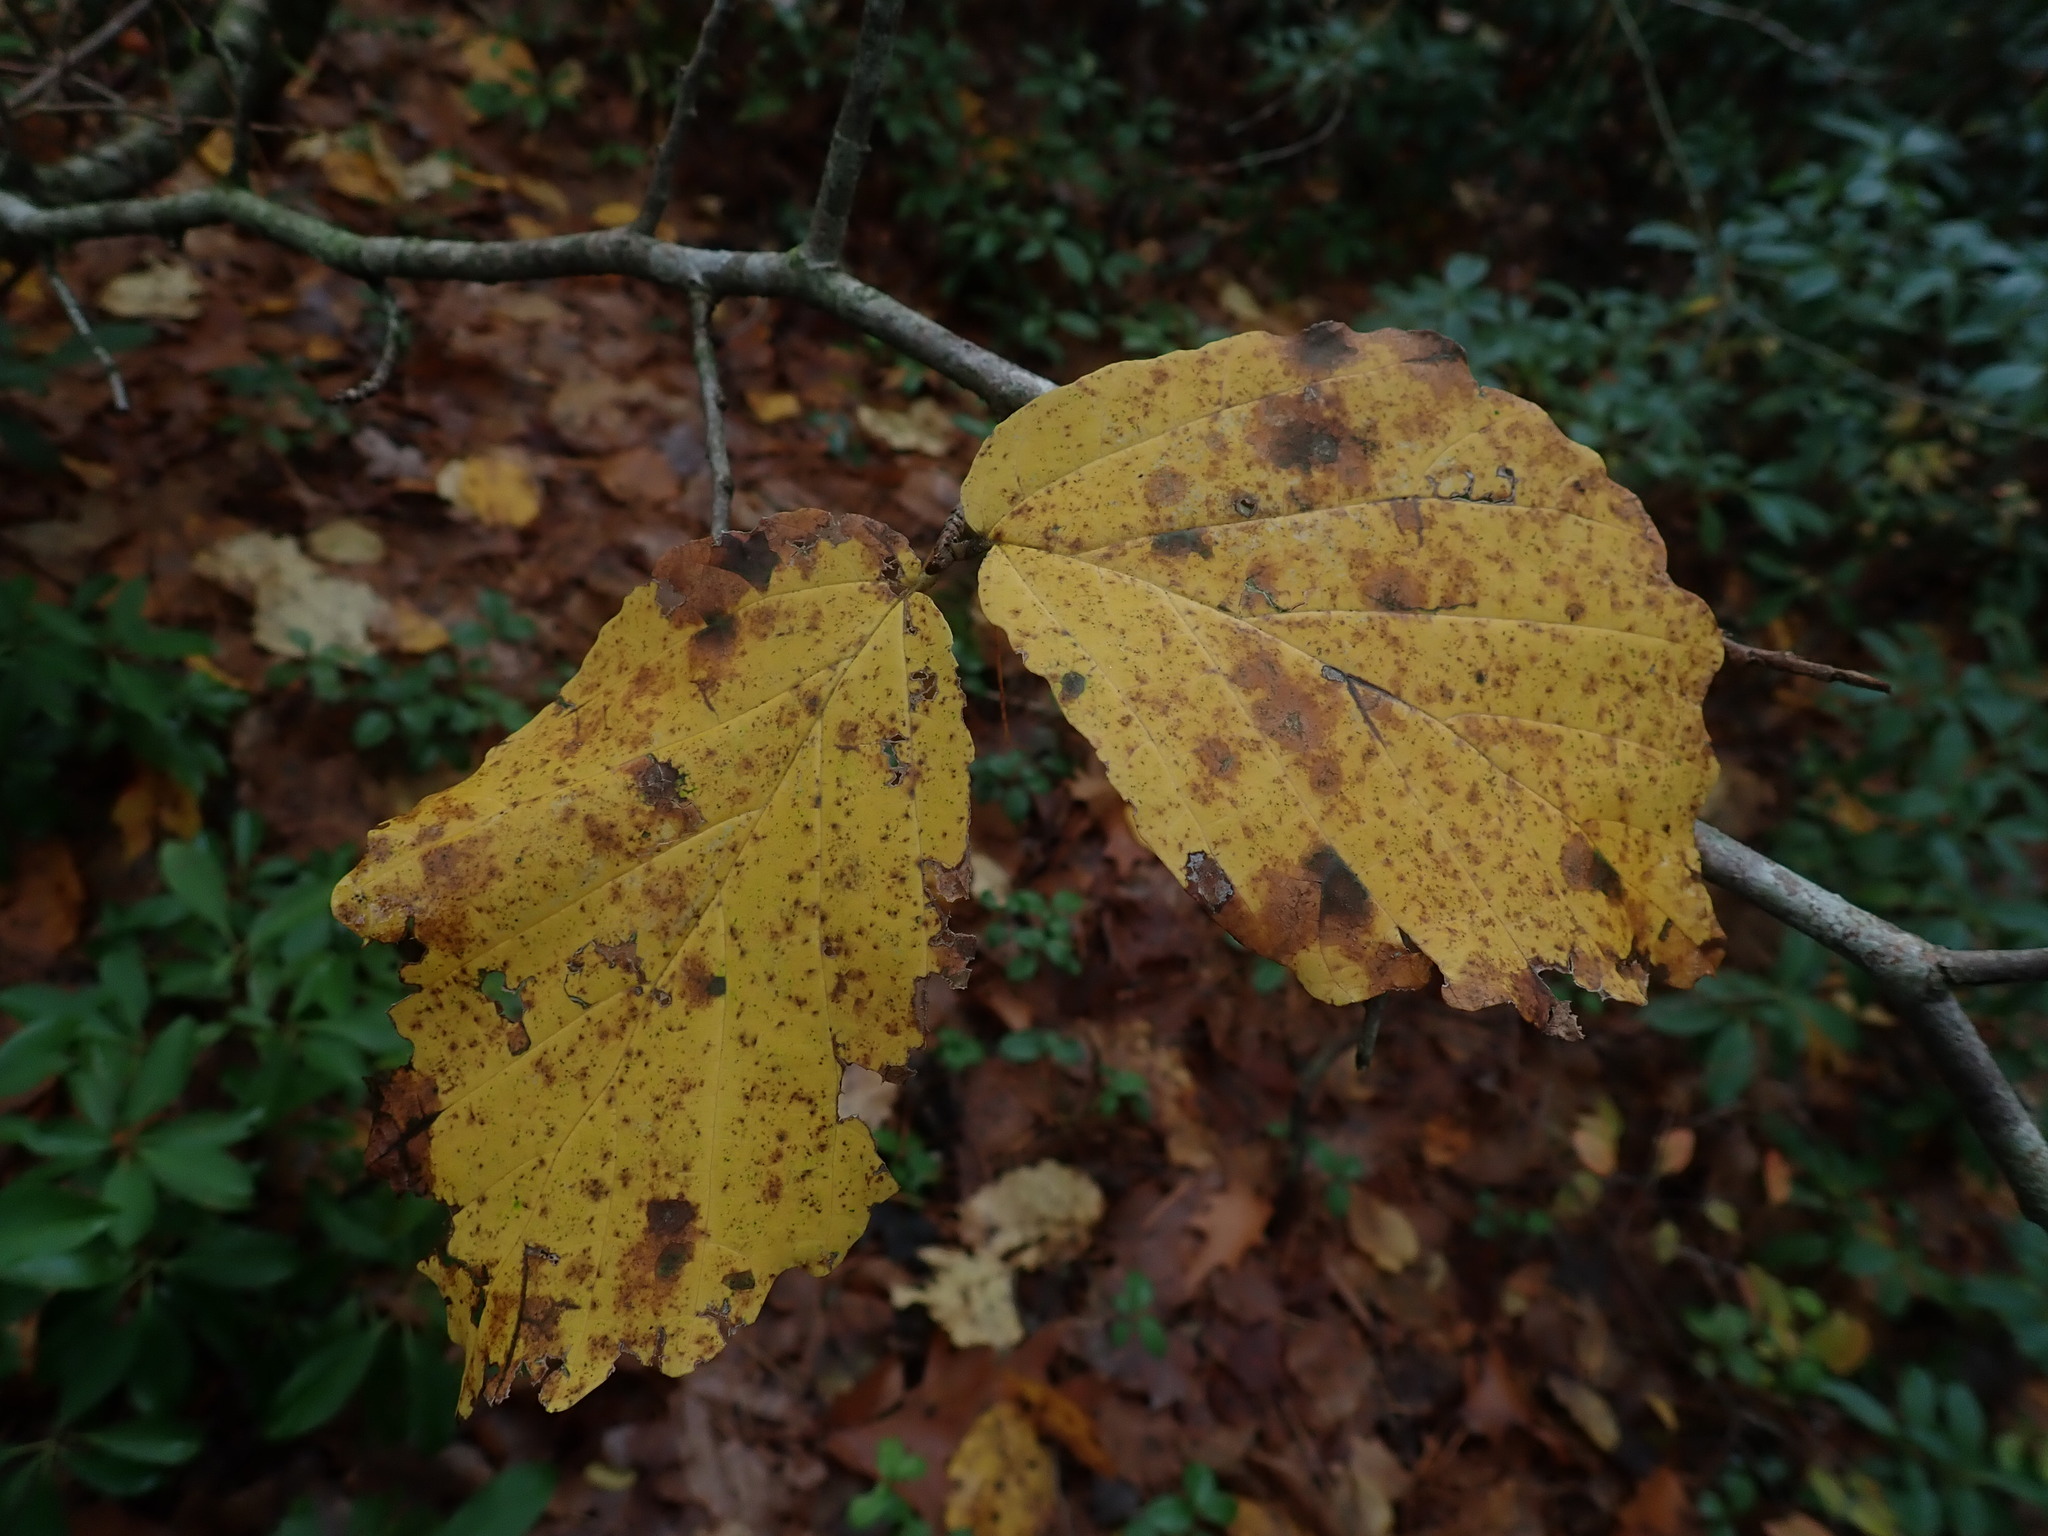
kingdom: Plantae
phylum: Tracheophyta
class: Magnoliopsida
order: Saxifragales
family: Hamamelidaceae
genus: Hamamelis
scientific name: Hamamelis virginiana
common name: Witch-hazel
